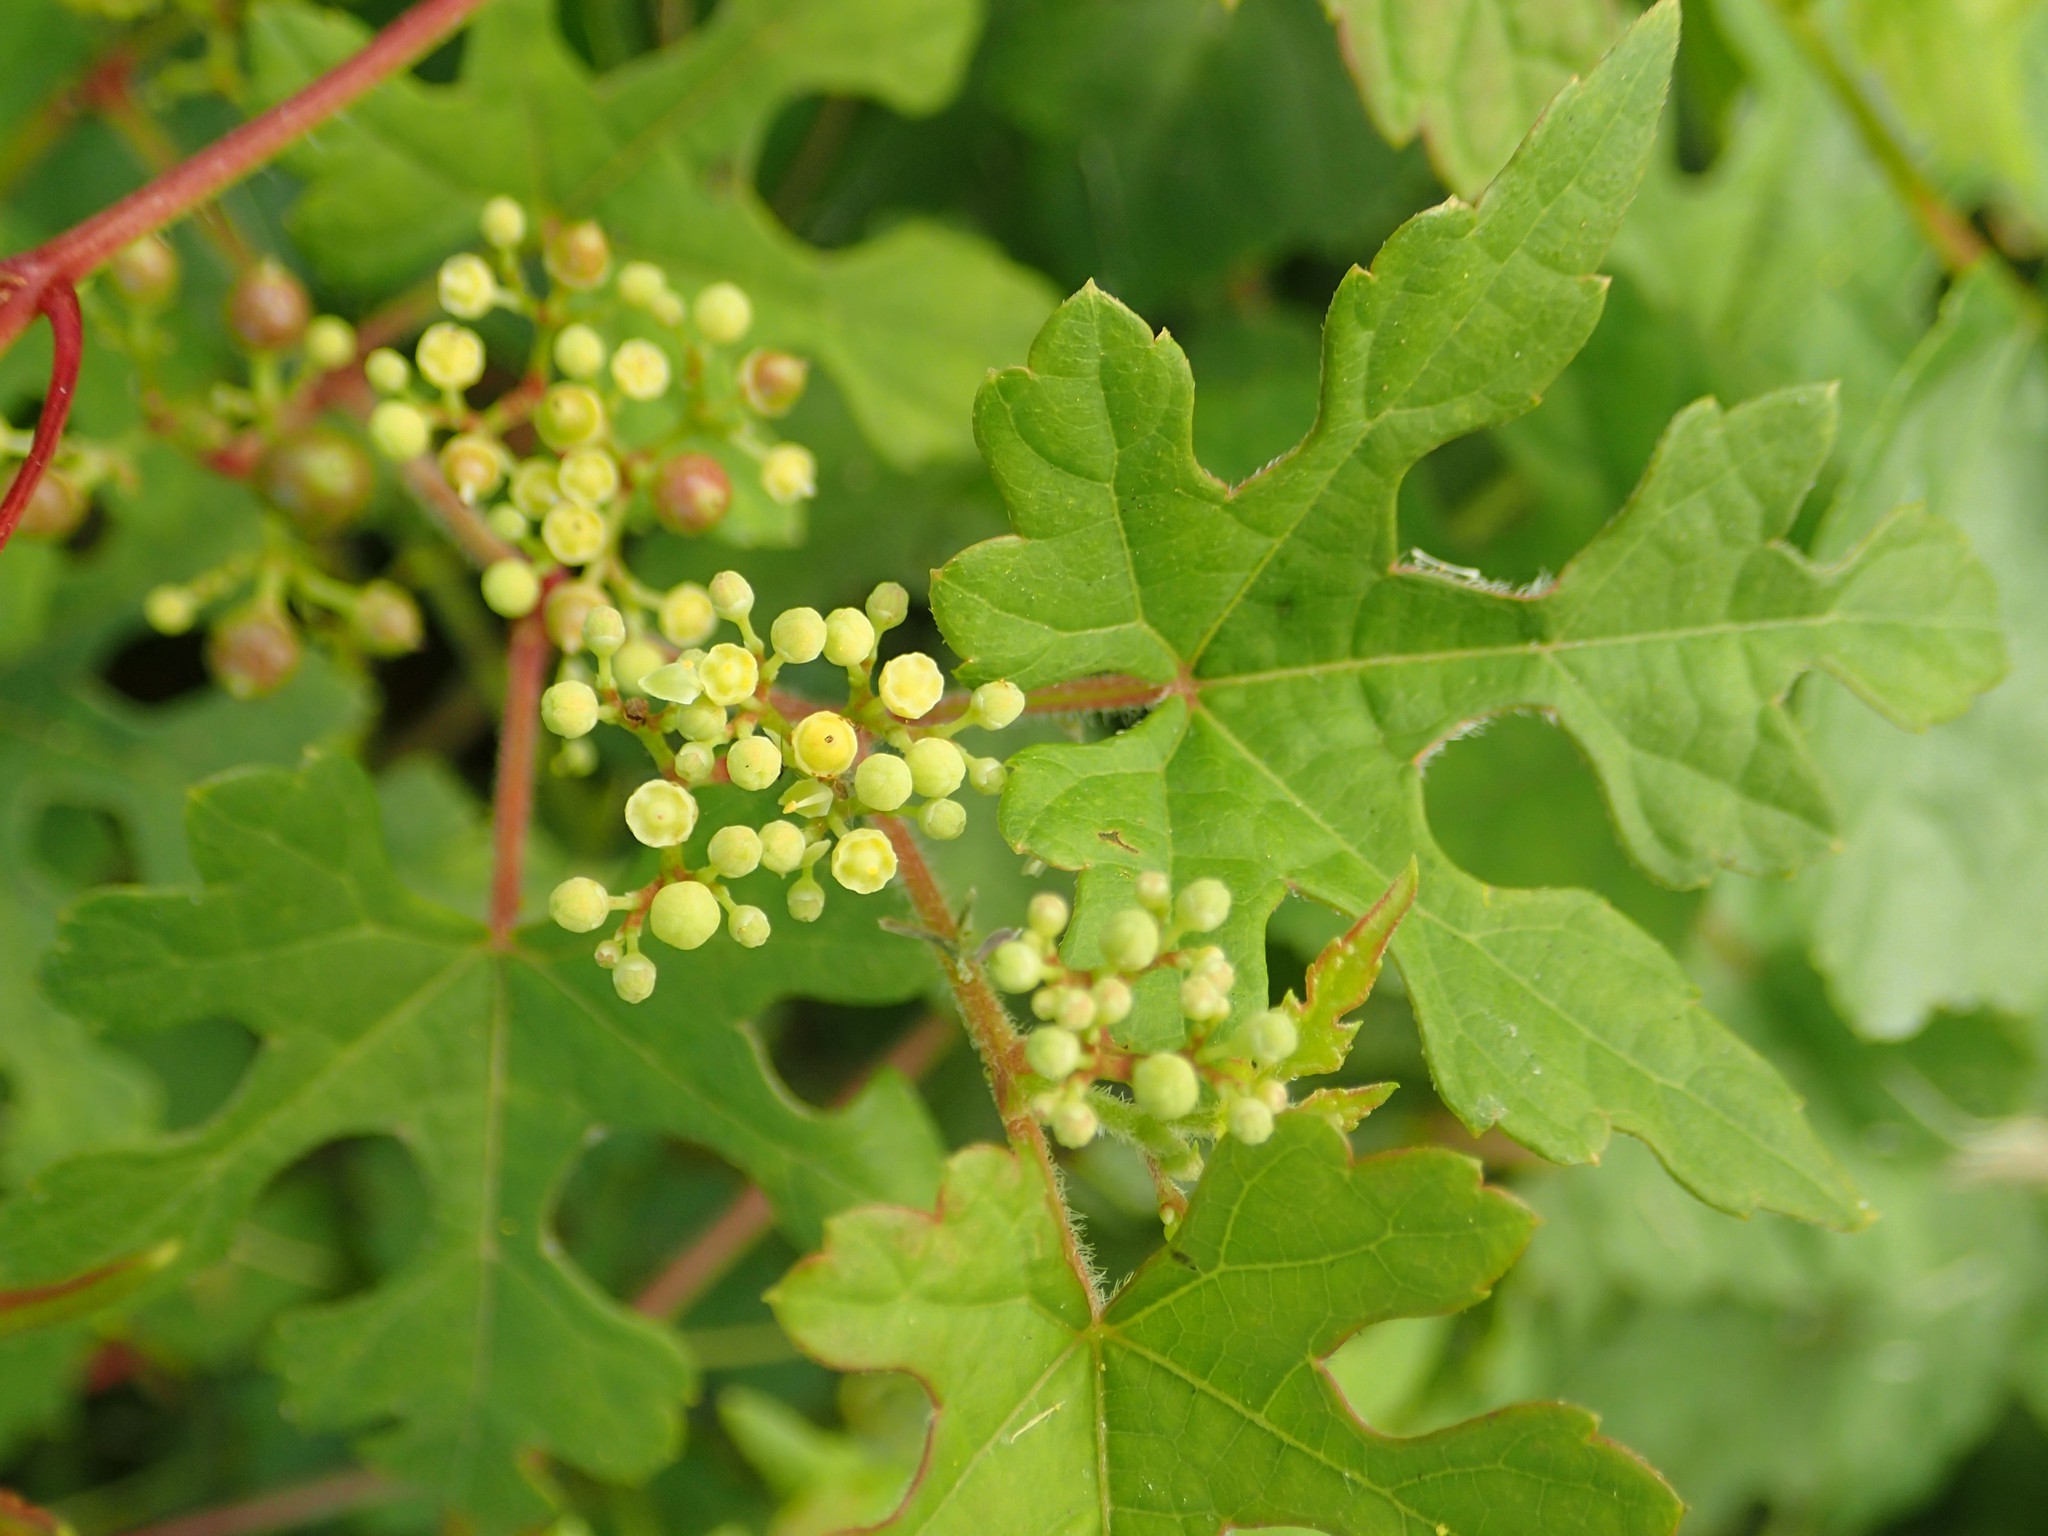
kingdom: Plantae
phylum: Tracheophyta
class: Magnoliopsida
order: Vitales
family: Vitaceae
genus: Ampelopsis
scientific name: Ampelopsis glandulosa
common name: Amur peppervine
